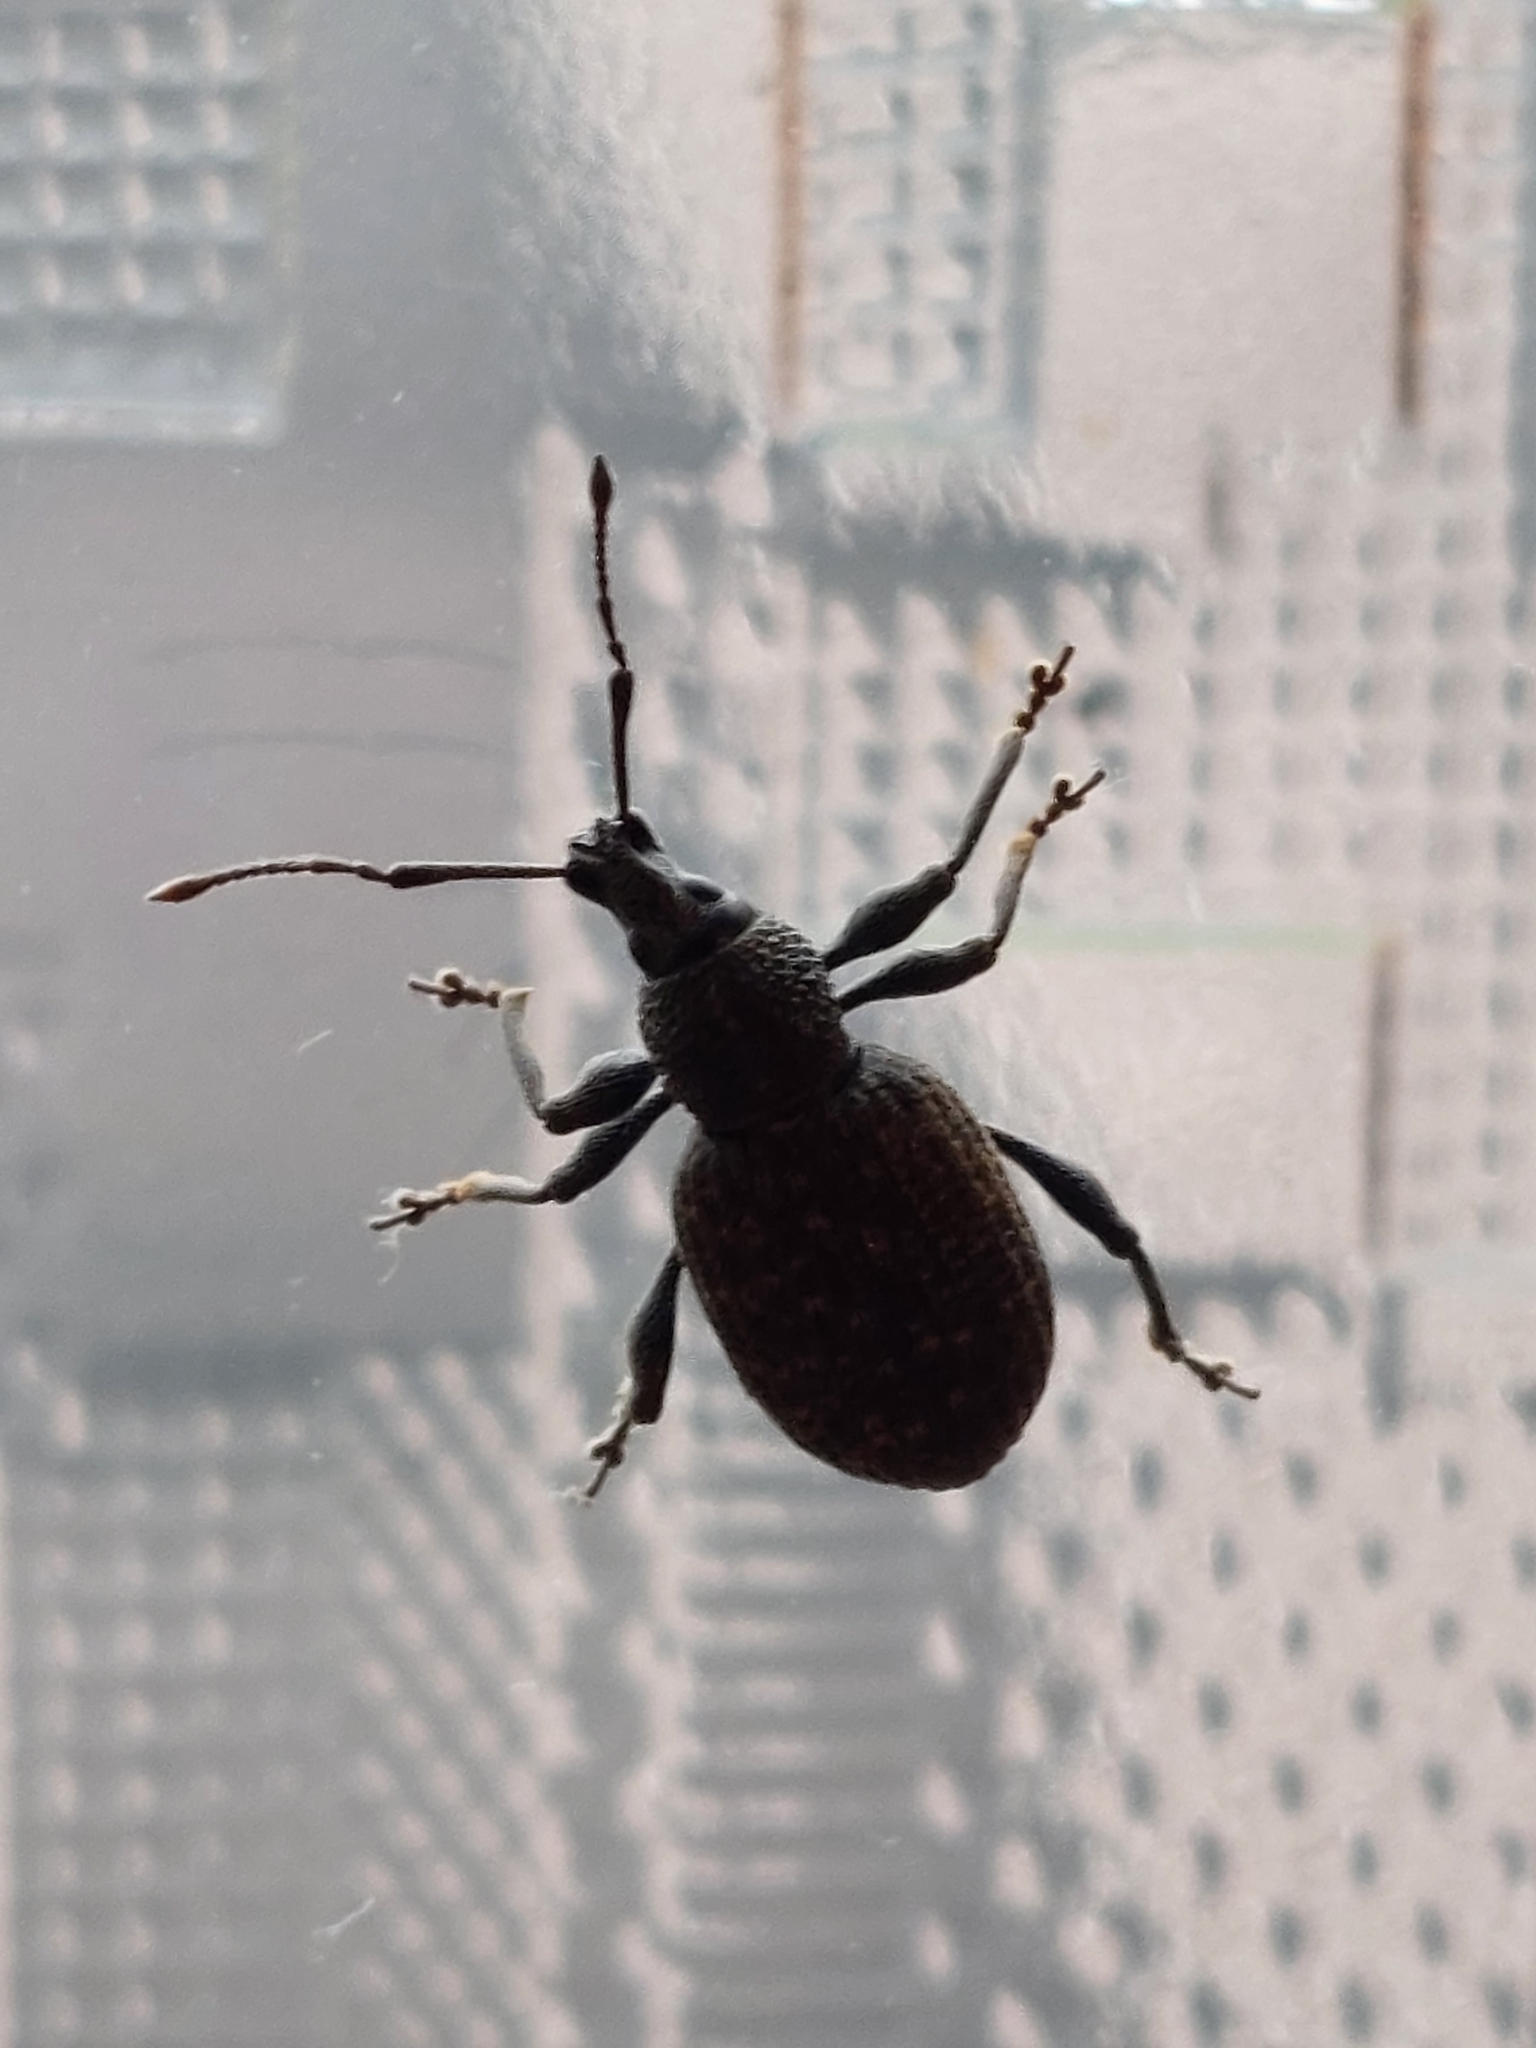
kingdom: Animalia
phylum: Arthropoda
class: Insecta
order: Coleoptera
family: Curculionidae
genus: Otiorhynchus
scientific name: Otiorhynchus sulcatus
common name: Black vine weevil
